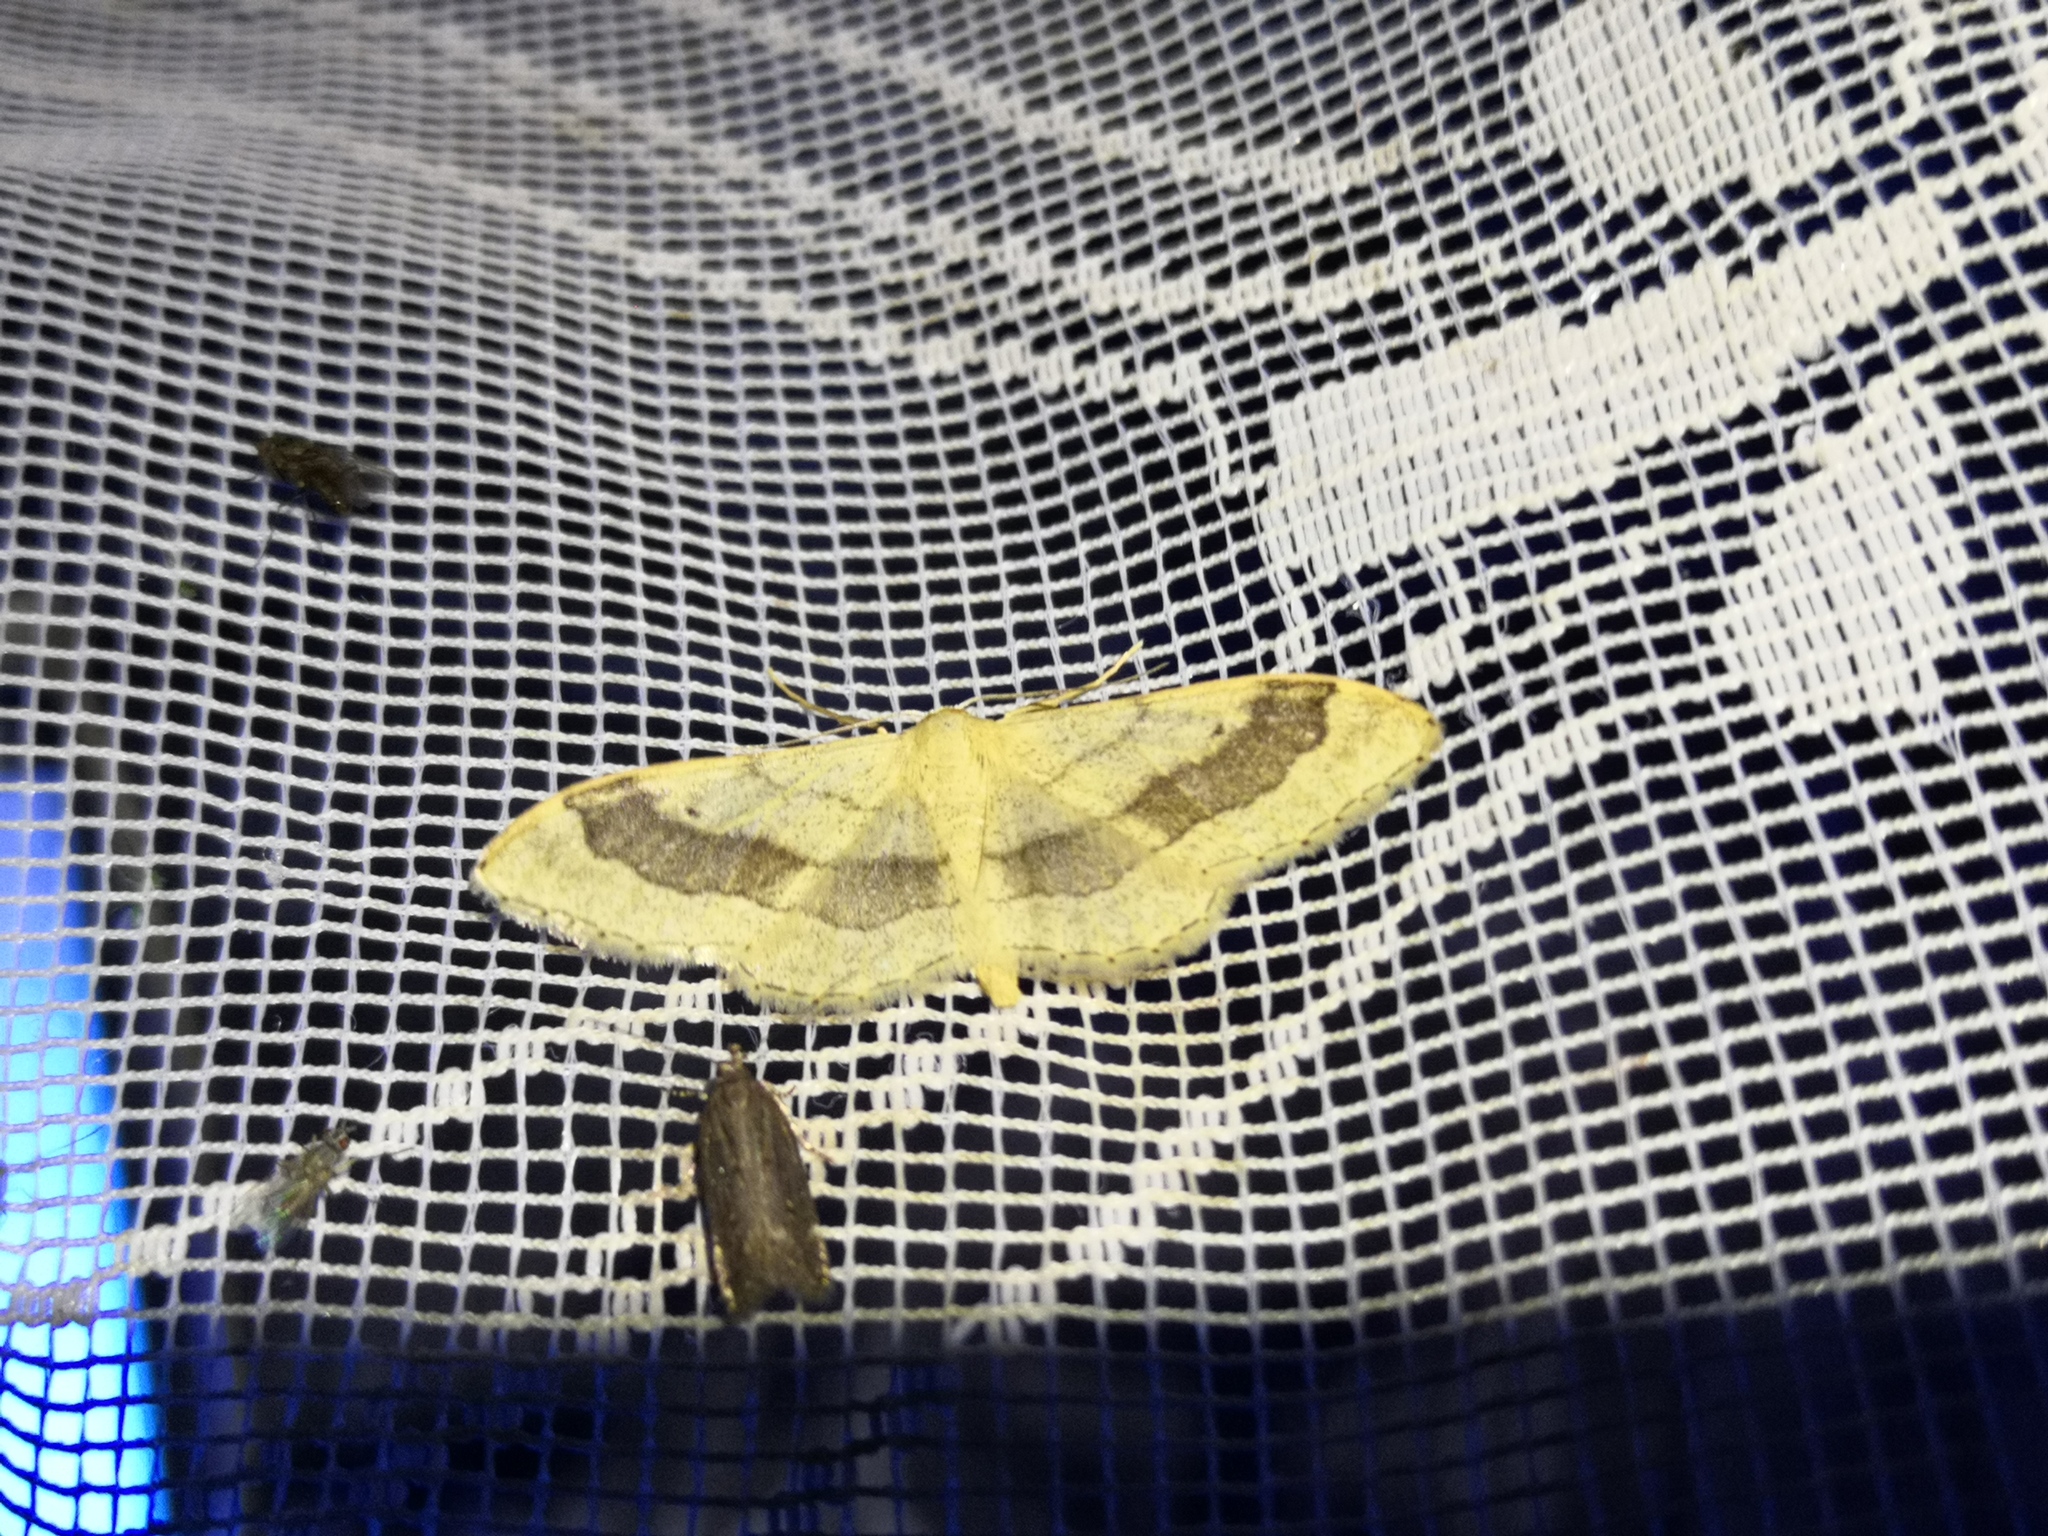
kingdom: Animalia
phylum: Arthropoda
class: Insecta
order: Lepidoptera
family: Geometridae
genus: Idaea
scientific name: Idaea aversata
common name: Riband wave
